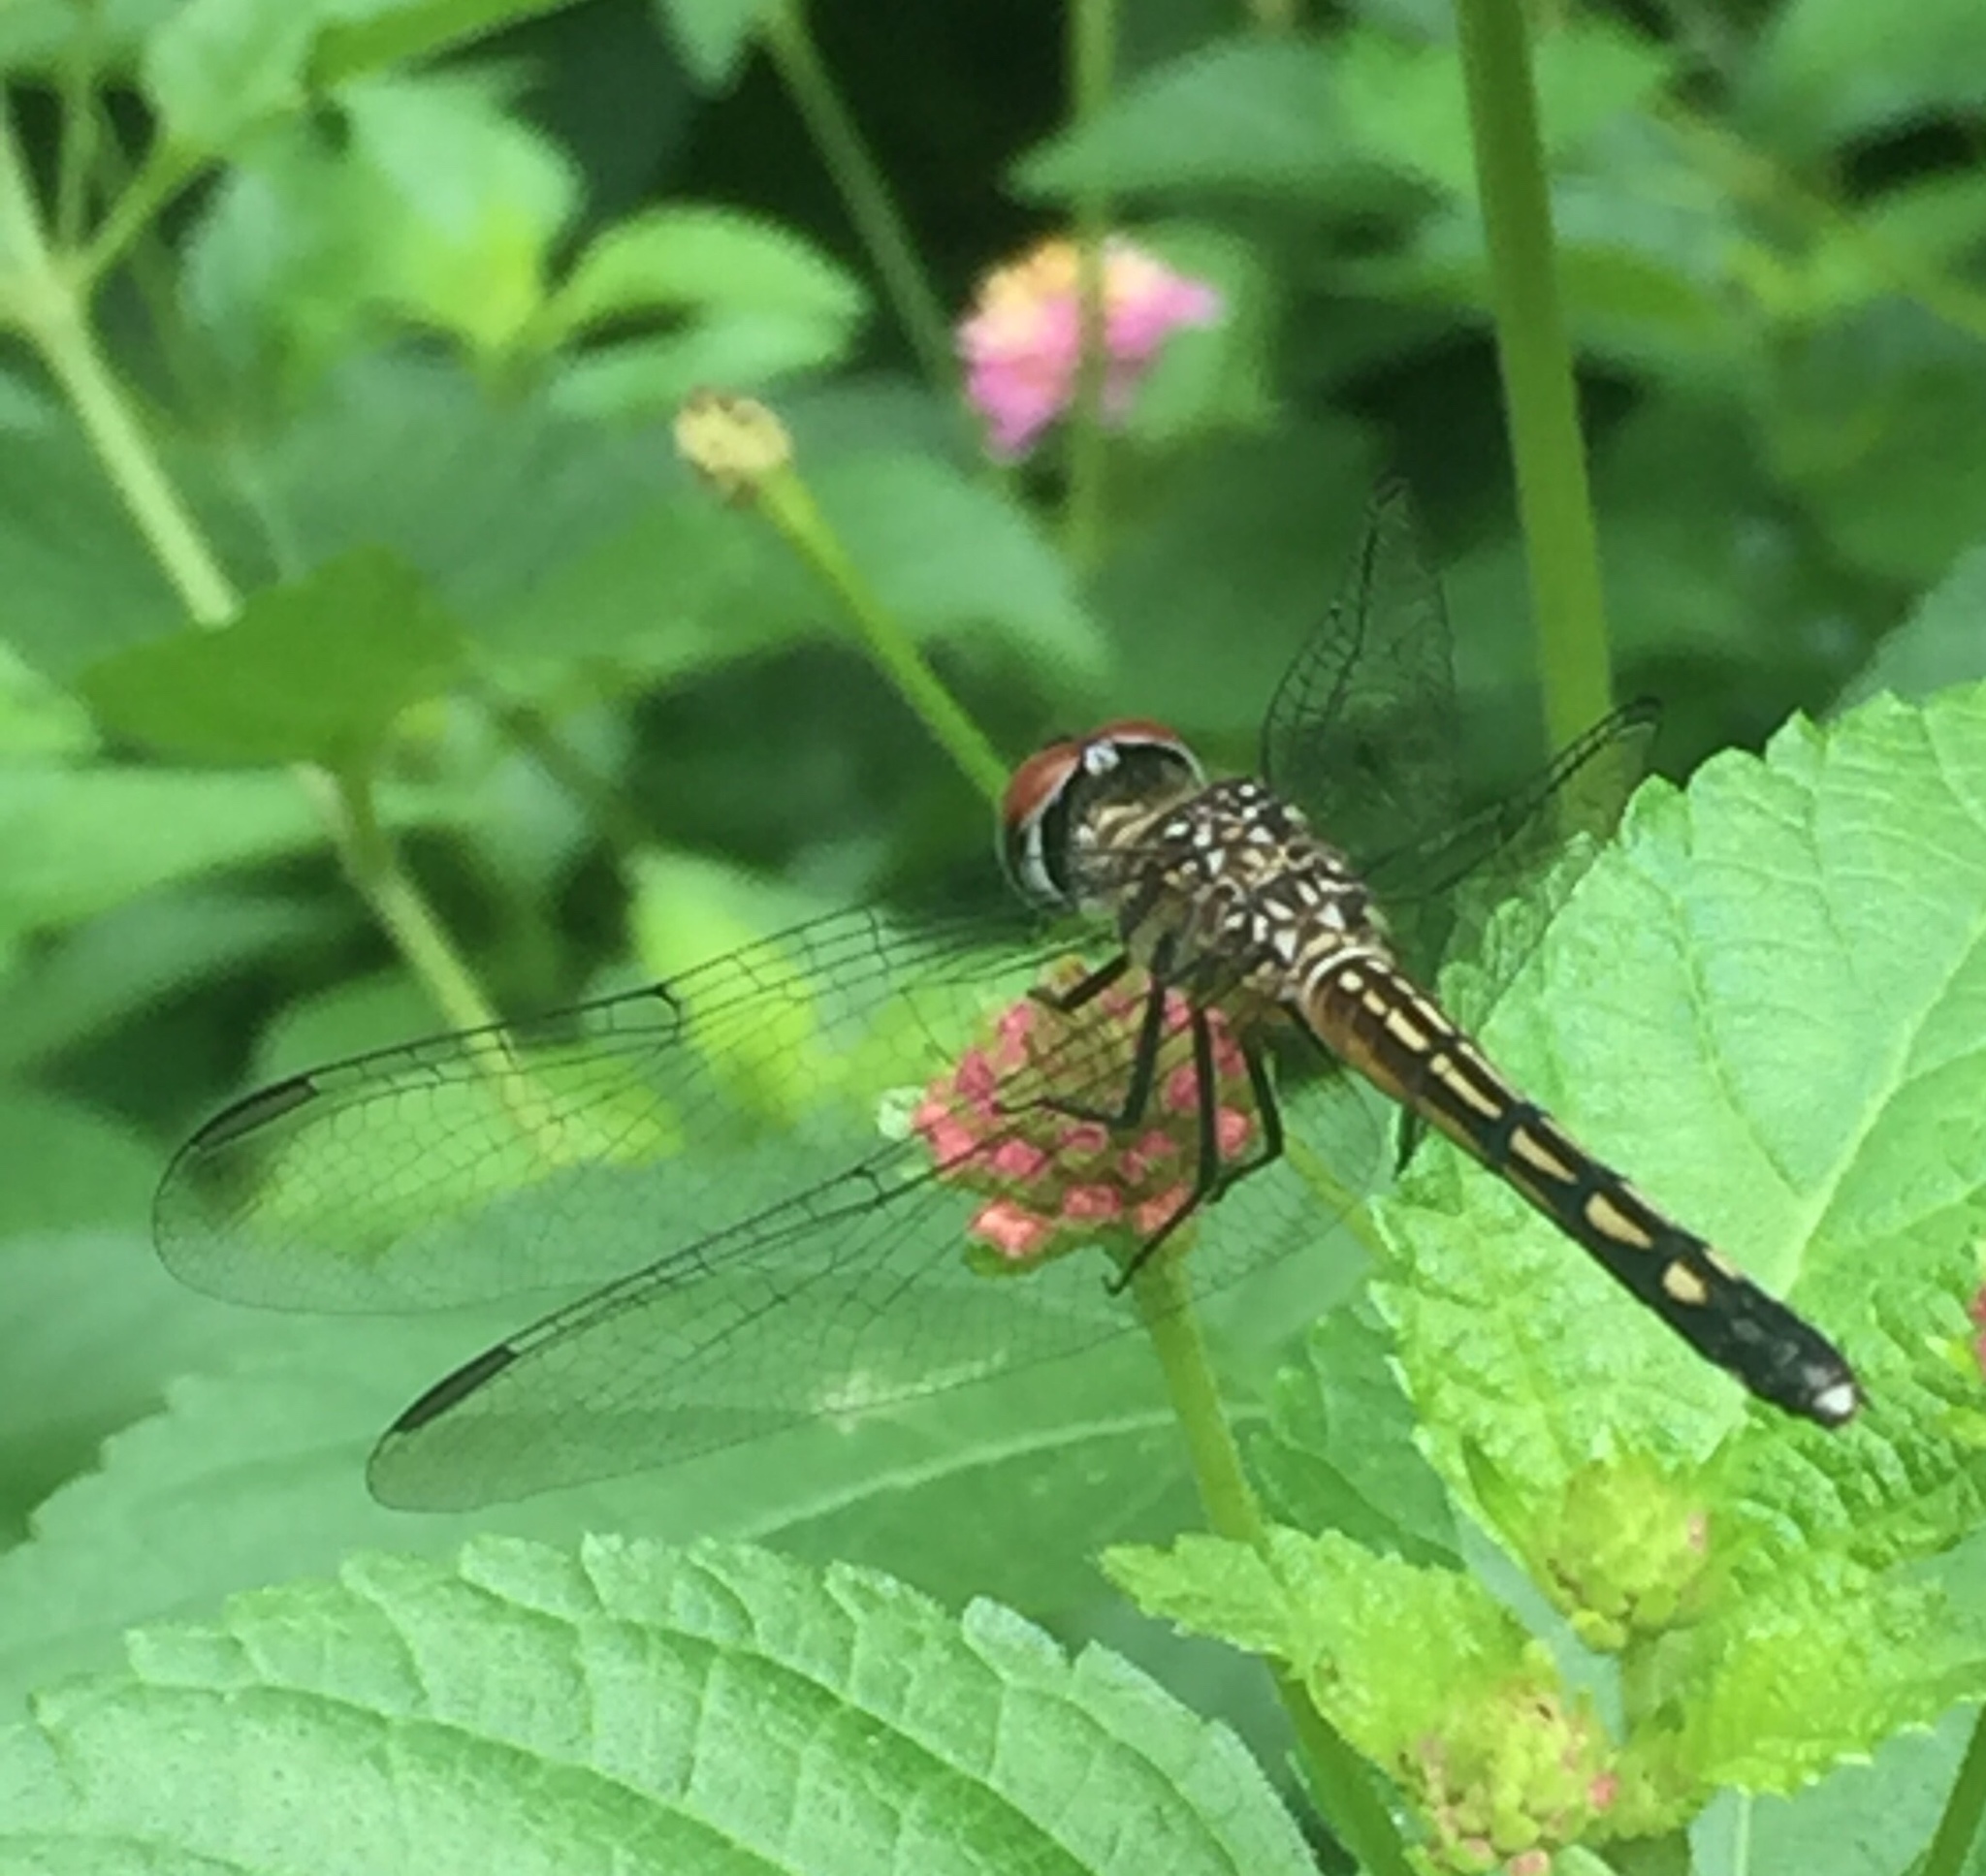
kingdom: Animalia
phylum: Arthropoda
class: Insecta
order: Odonata
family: Libellulidae
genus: Pachydiplax
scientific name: Pachydiplax longipennis
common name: Blue dasher
